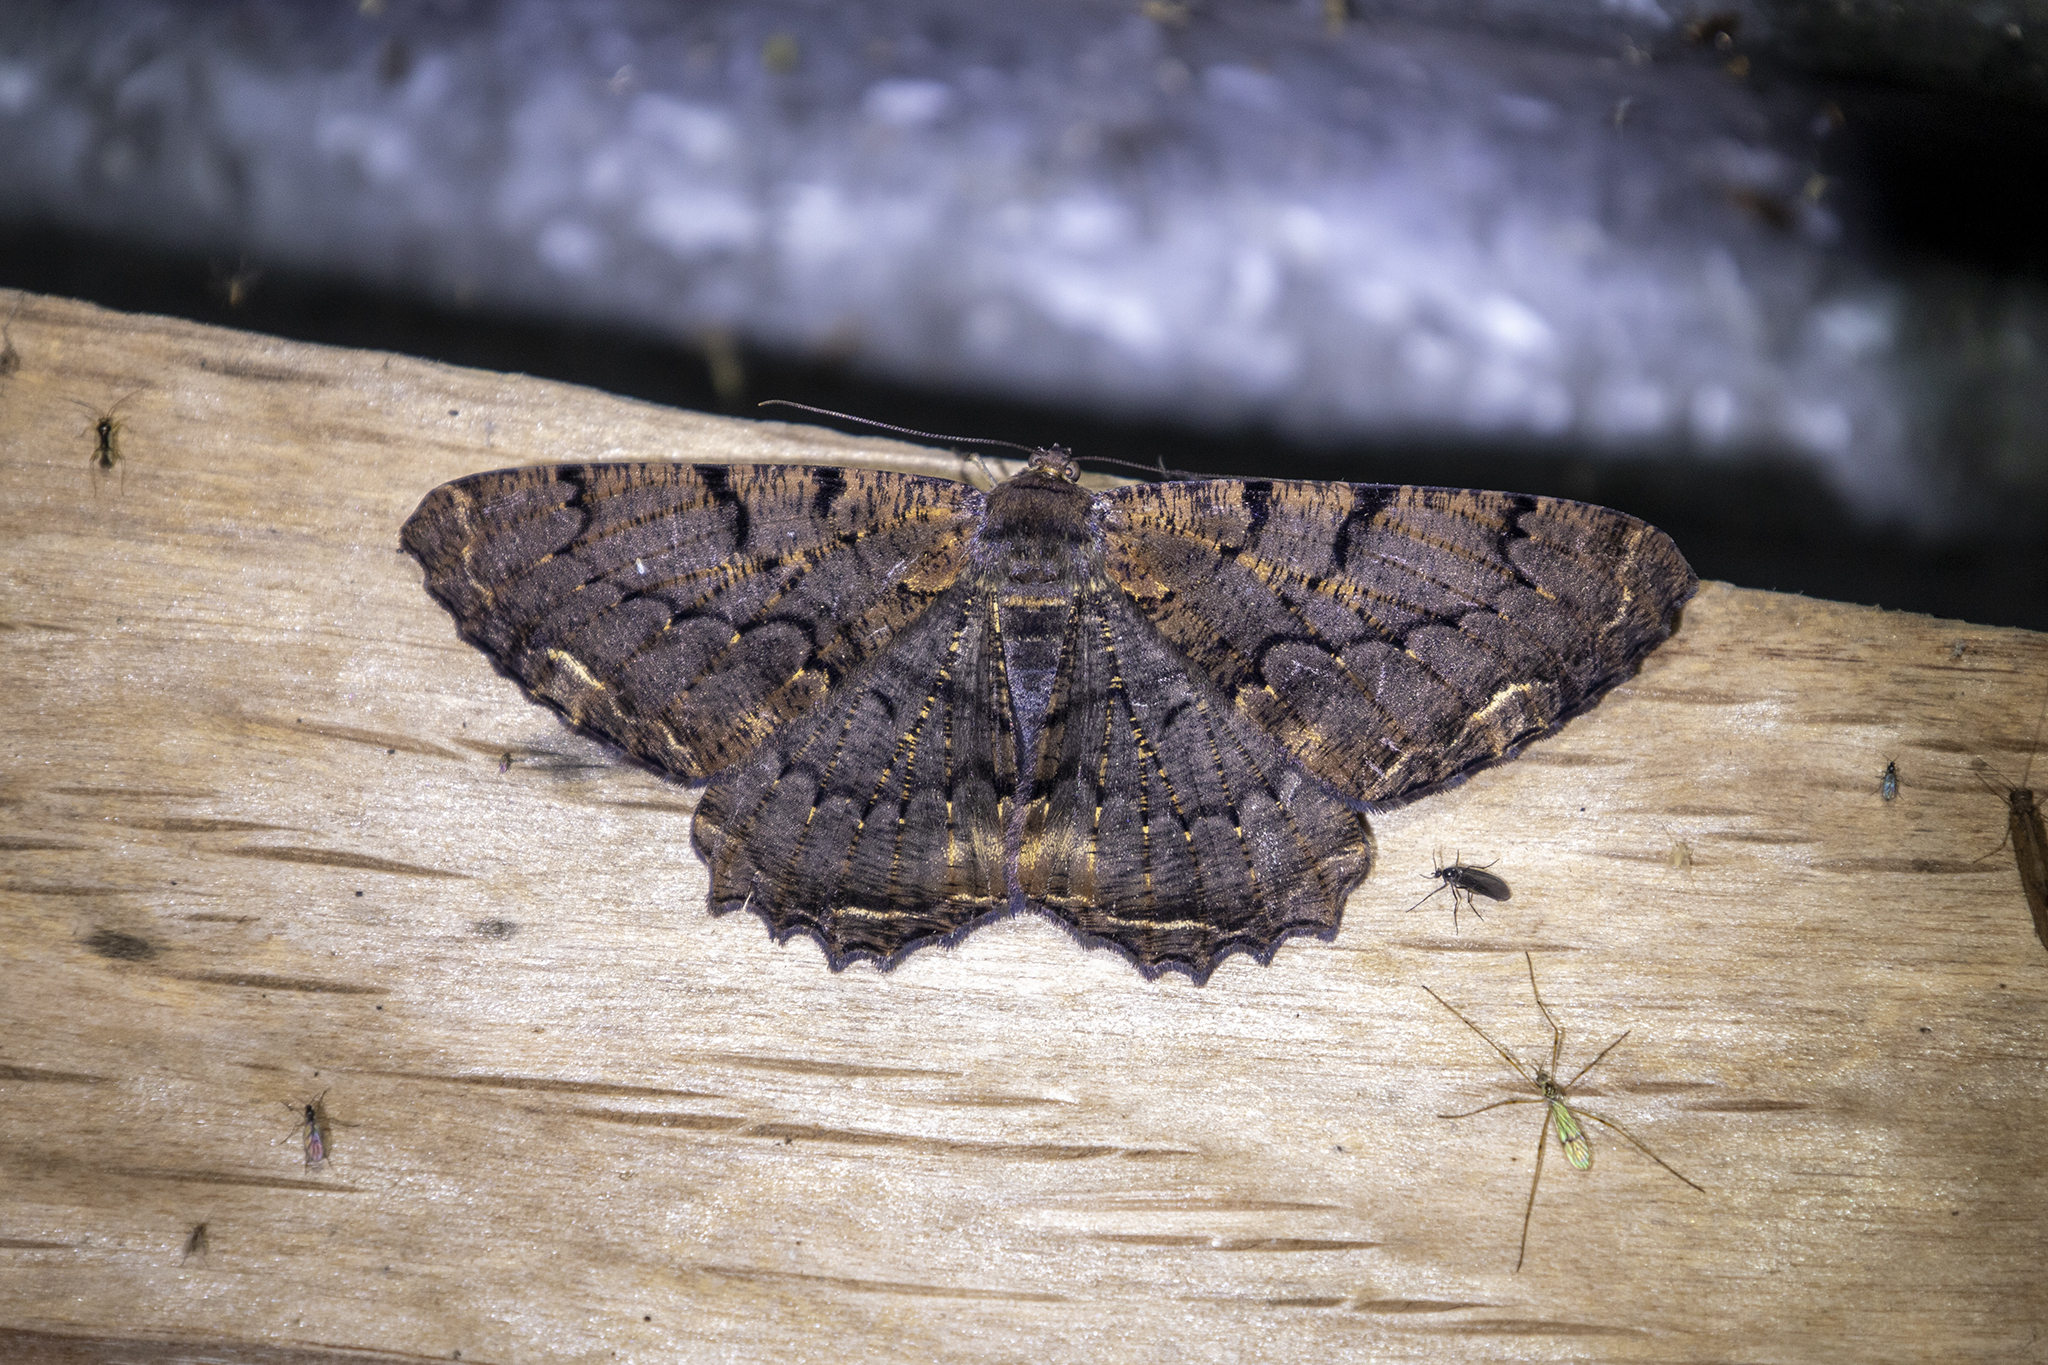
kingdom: Animalia
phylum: Arthropoda
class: Insecta
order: Lepidoptera
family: Geometridae
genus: Chorodna
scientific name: Chorodna mauraria
